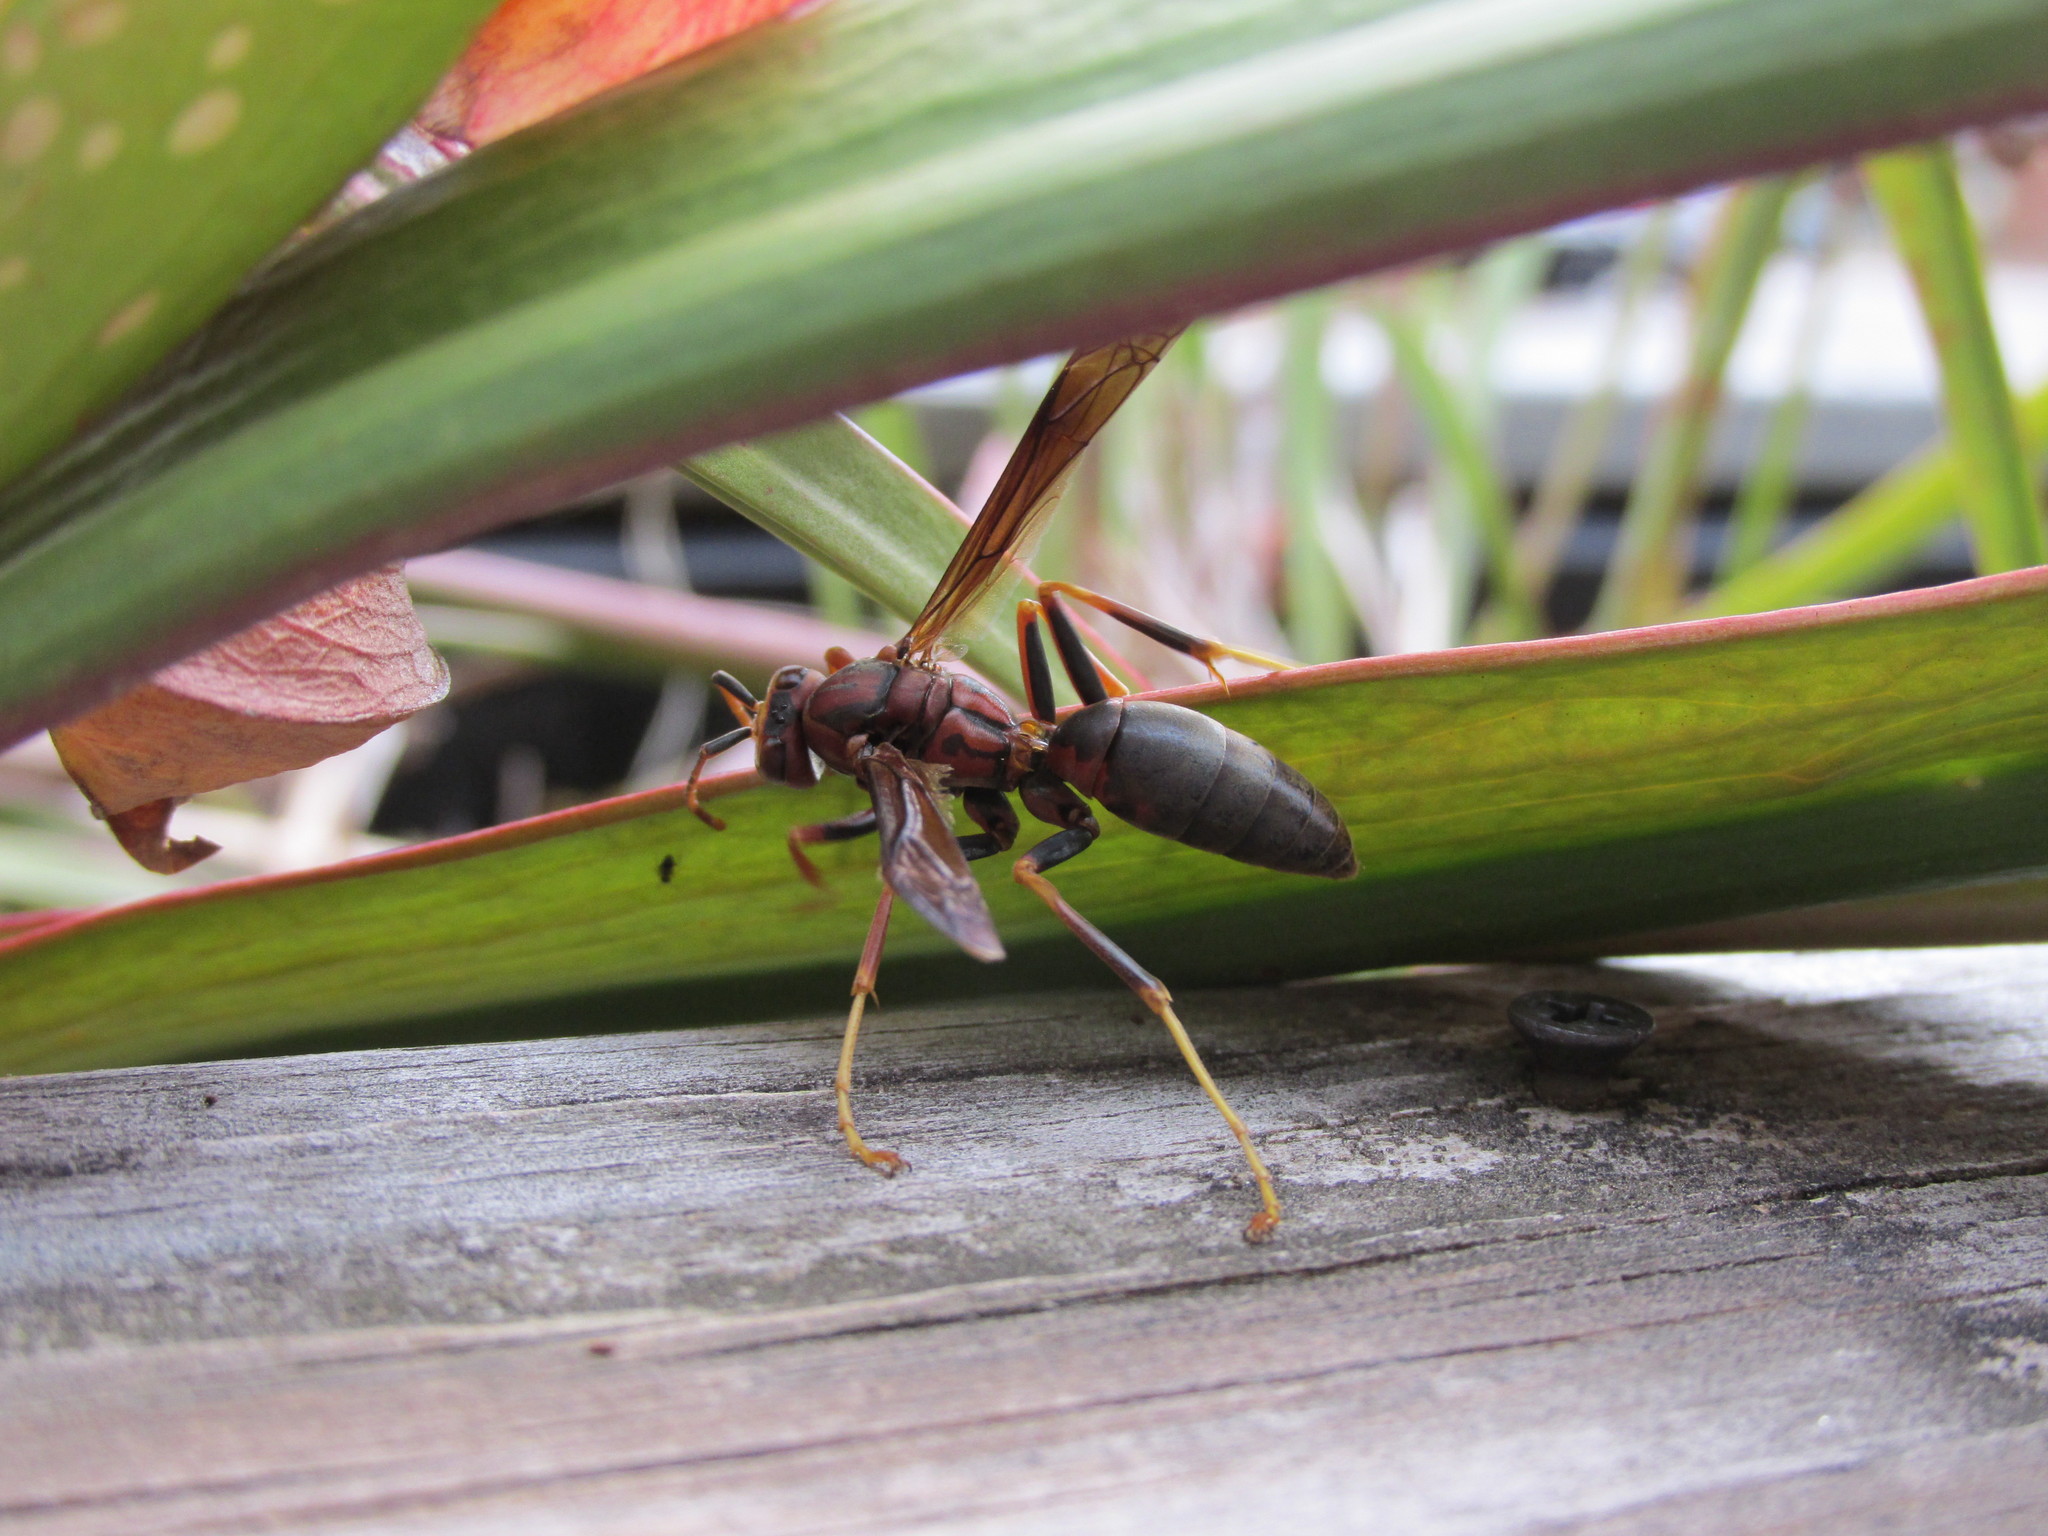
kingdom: Animalia
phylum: Arthropoda
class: Insecta
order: Hymenoptera
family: Eumenidae
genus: Polistes
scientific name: Polistes metricus
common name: Metric paper wasp
